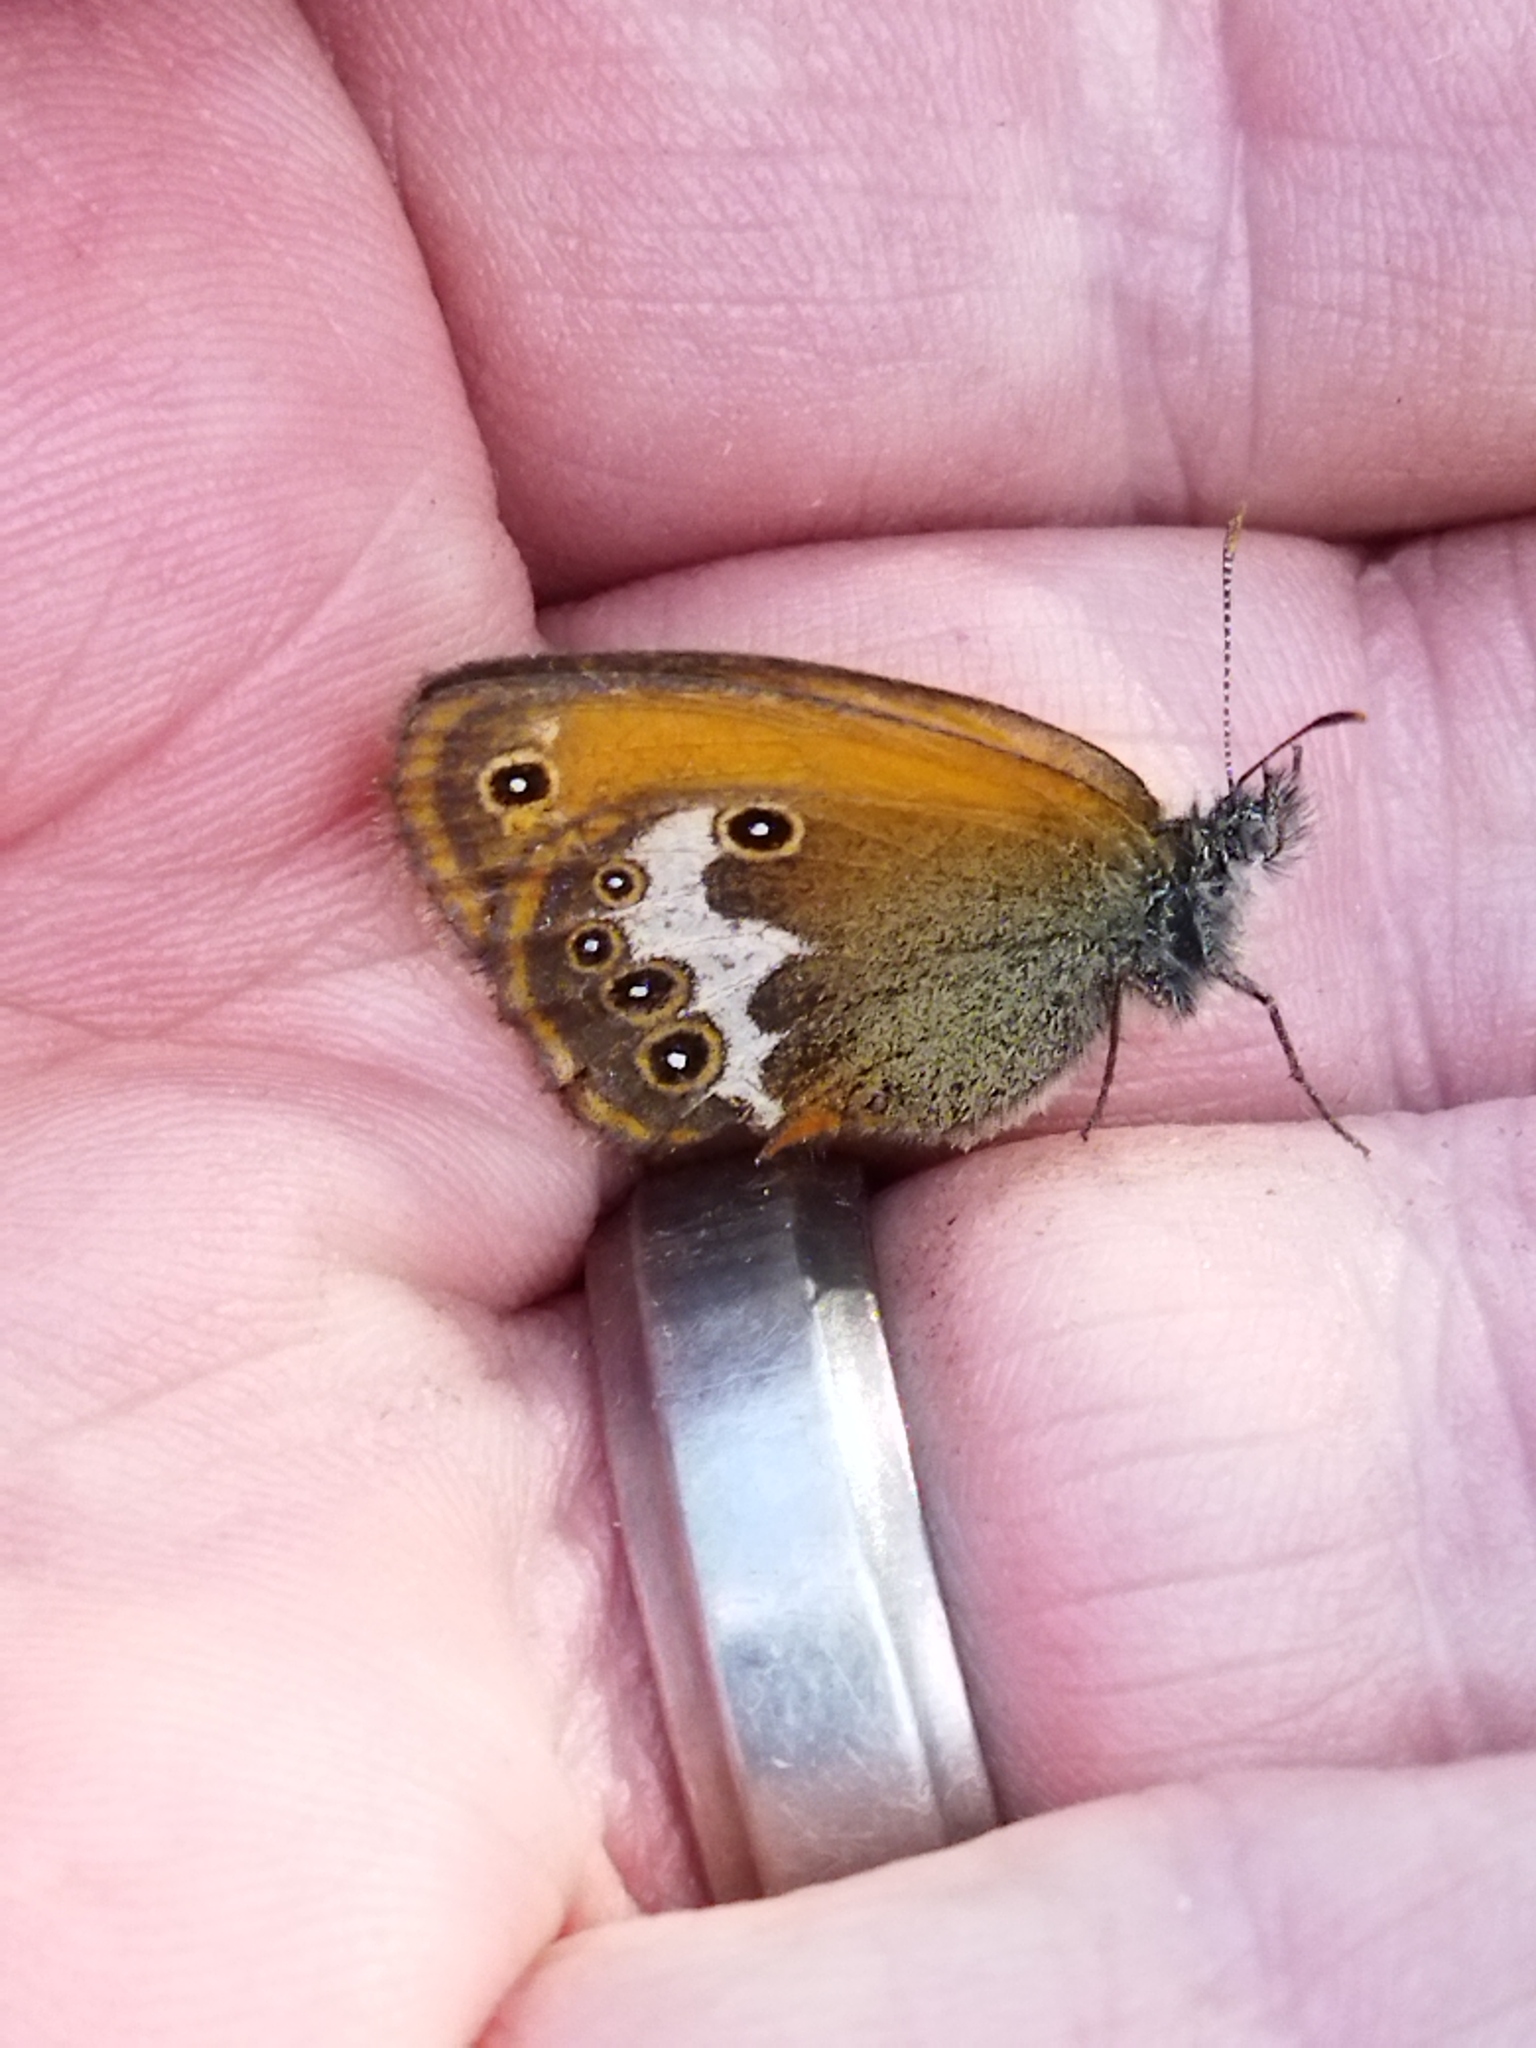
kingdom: Animalia
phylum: Arthropoda
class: Insecta
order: Lepidoptera
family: Nymphalidae
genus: Coenonympha
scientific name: Coenonympha arcania
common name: Pearly heath
